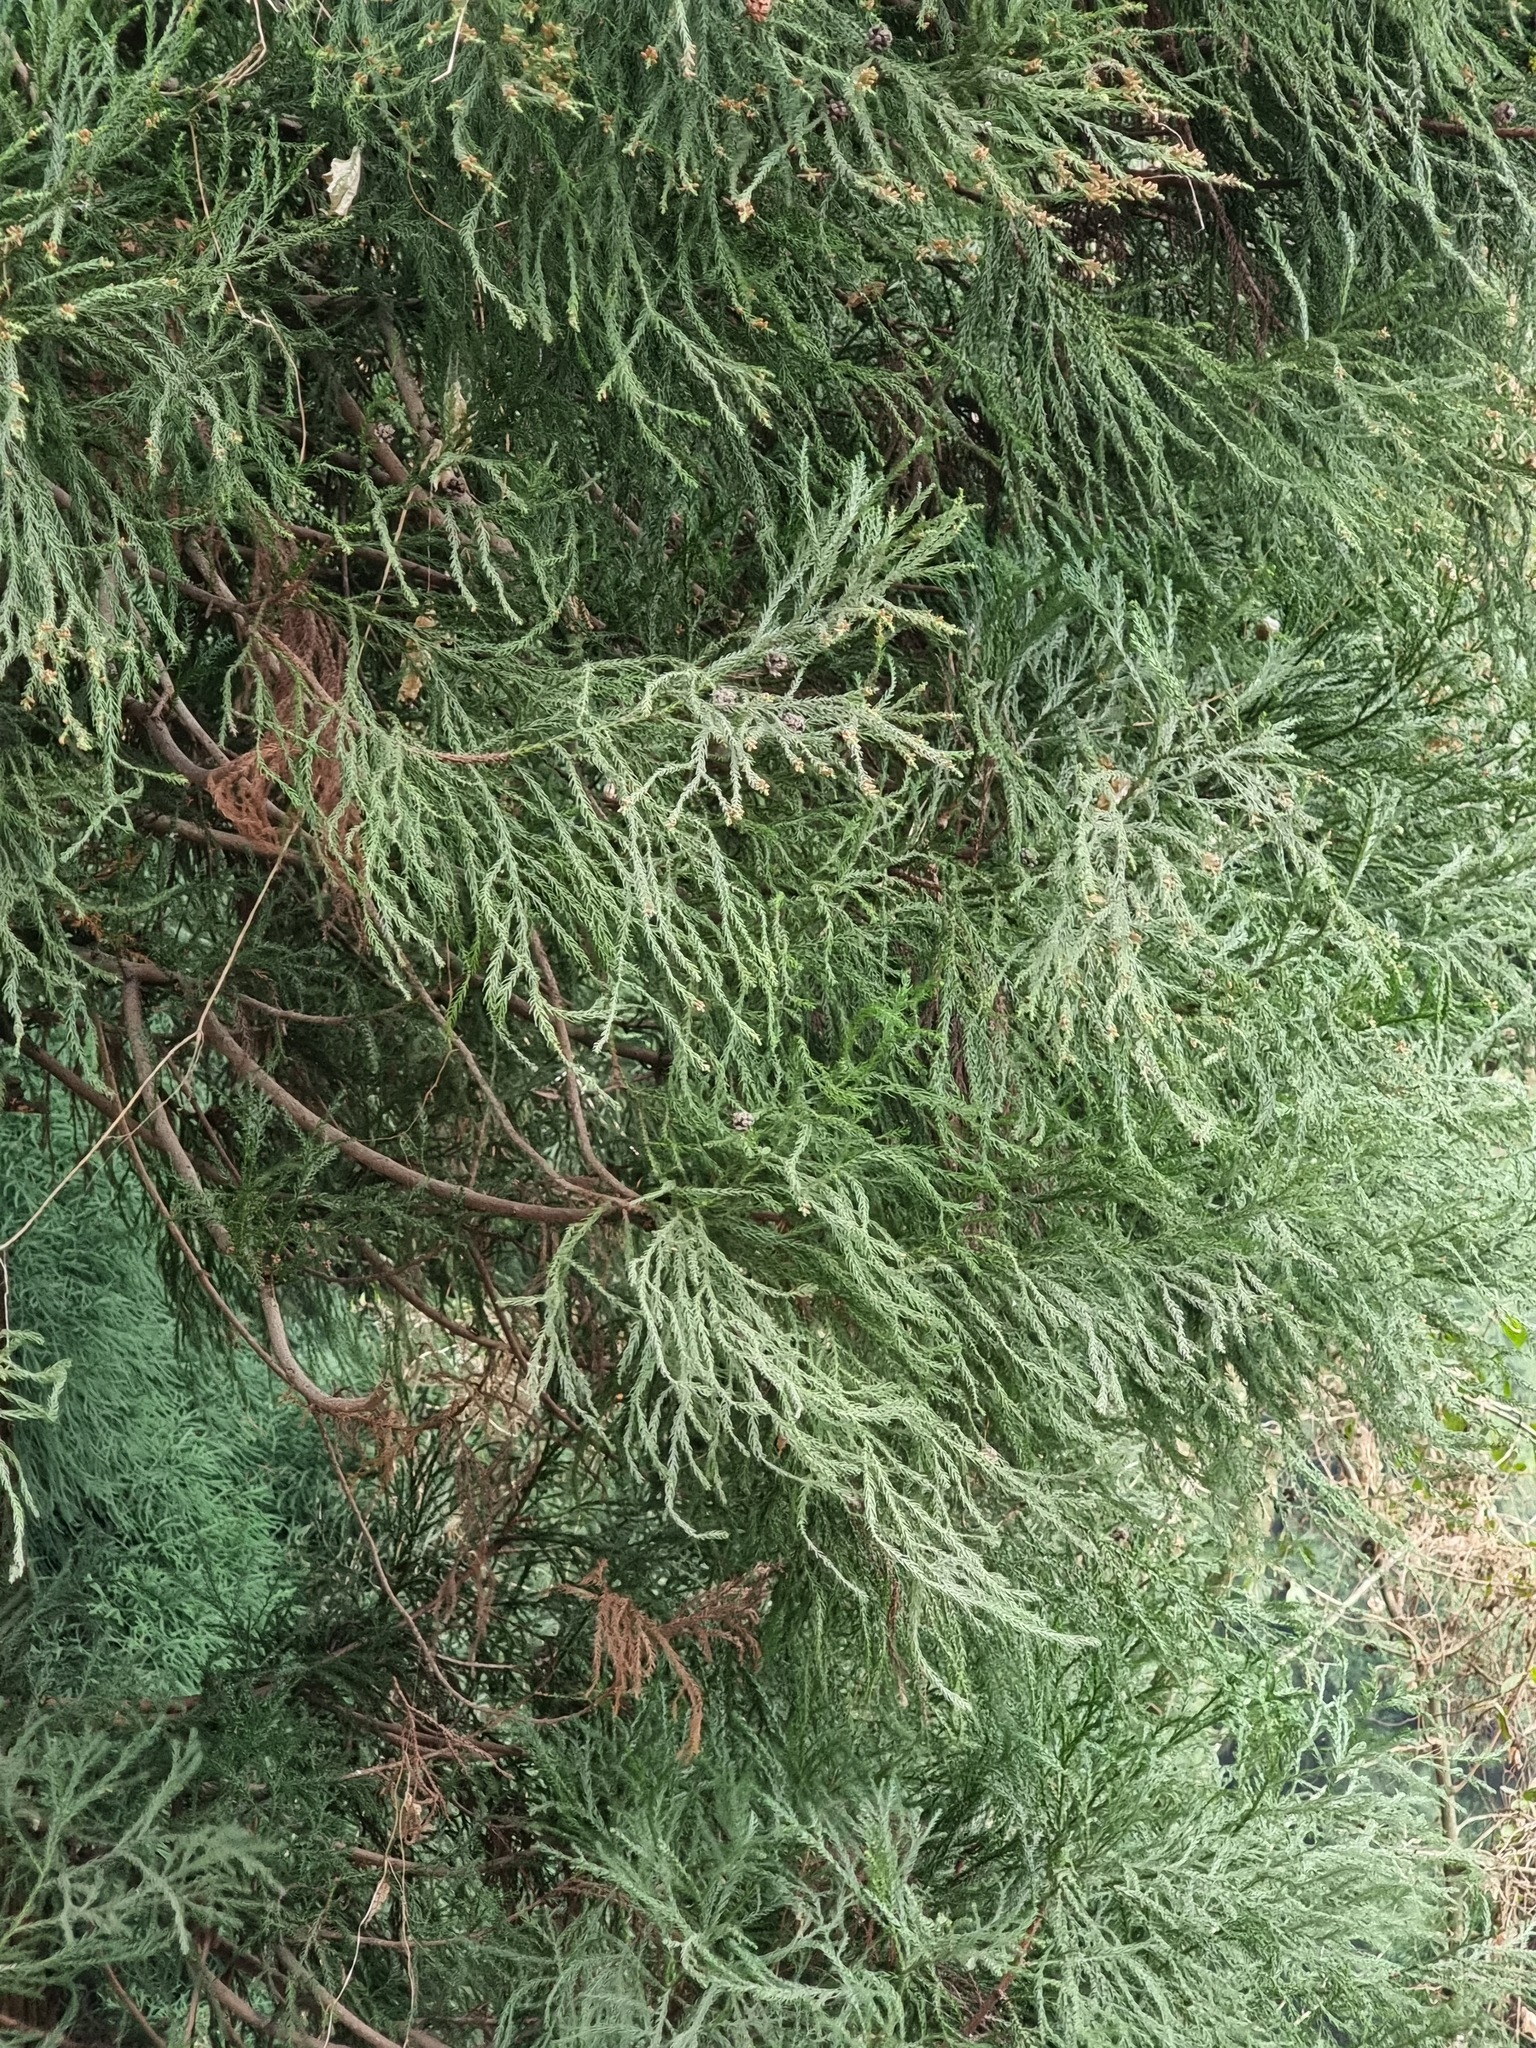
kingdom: Plantae
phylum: Tracheophyta
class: Pinopsida
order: Pinales
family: Cupressaceae
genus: Cryptomeria
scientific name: Cryptomeria japonica
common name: Japanese cedar
